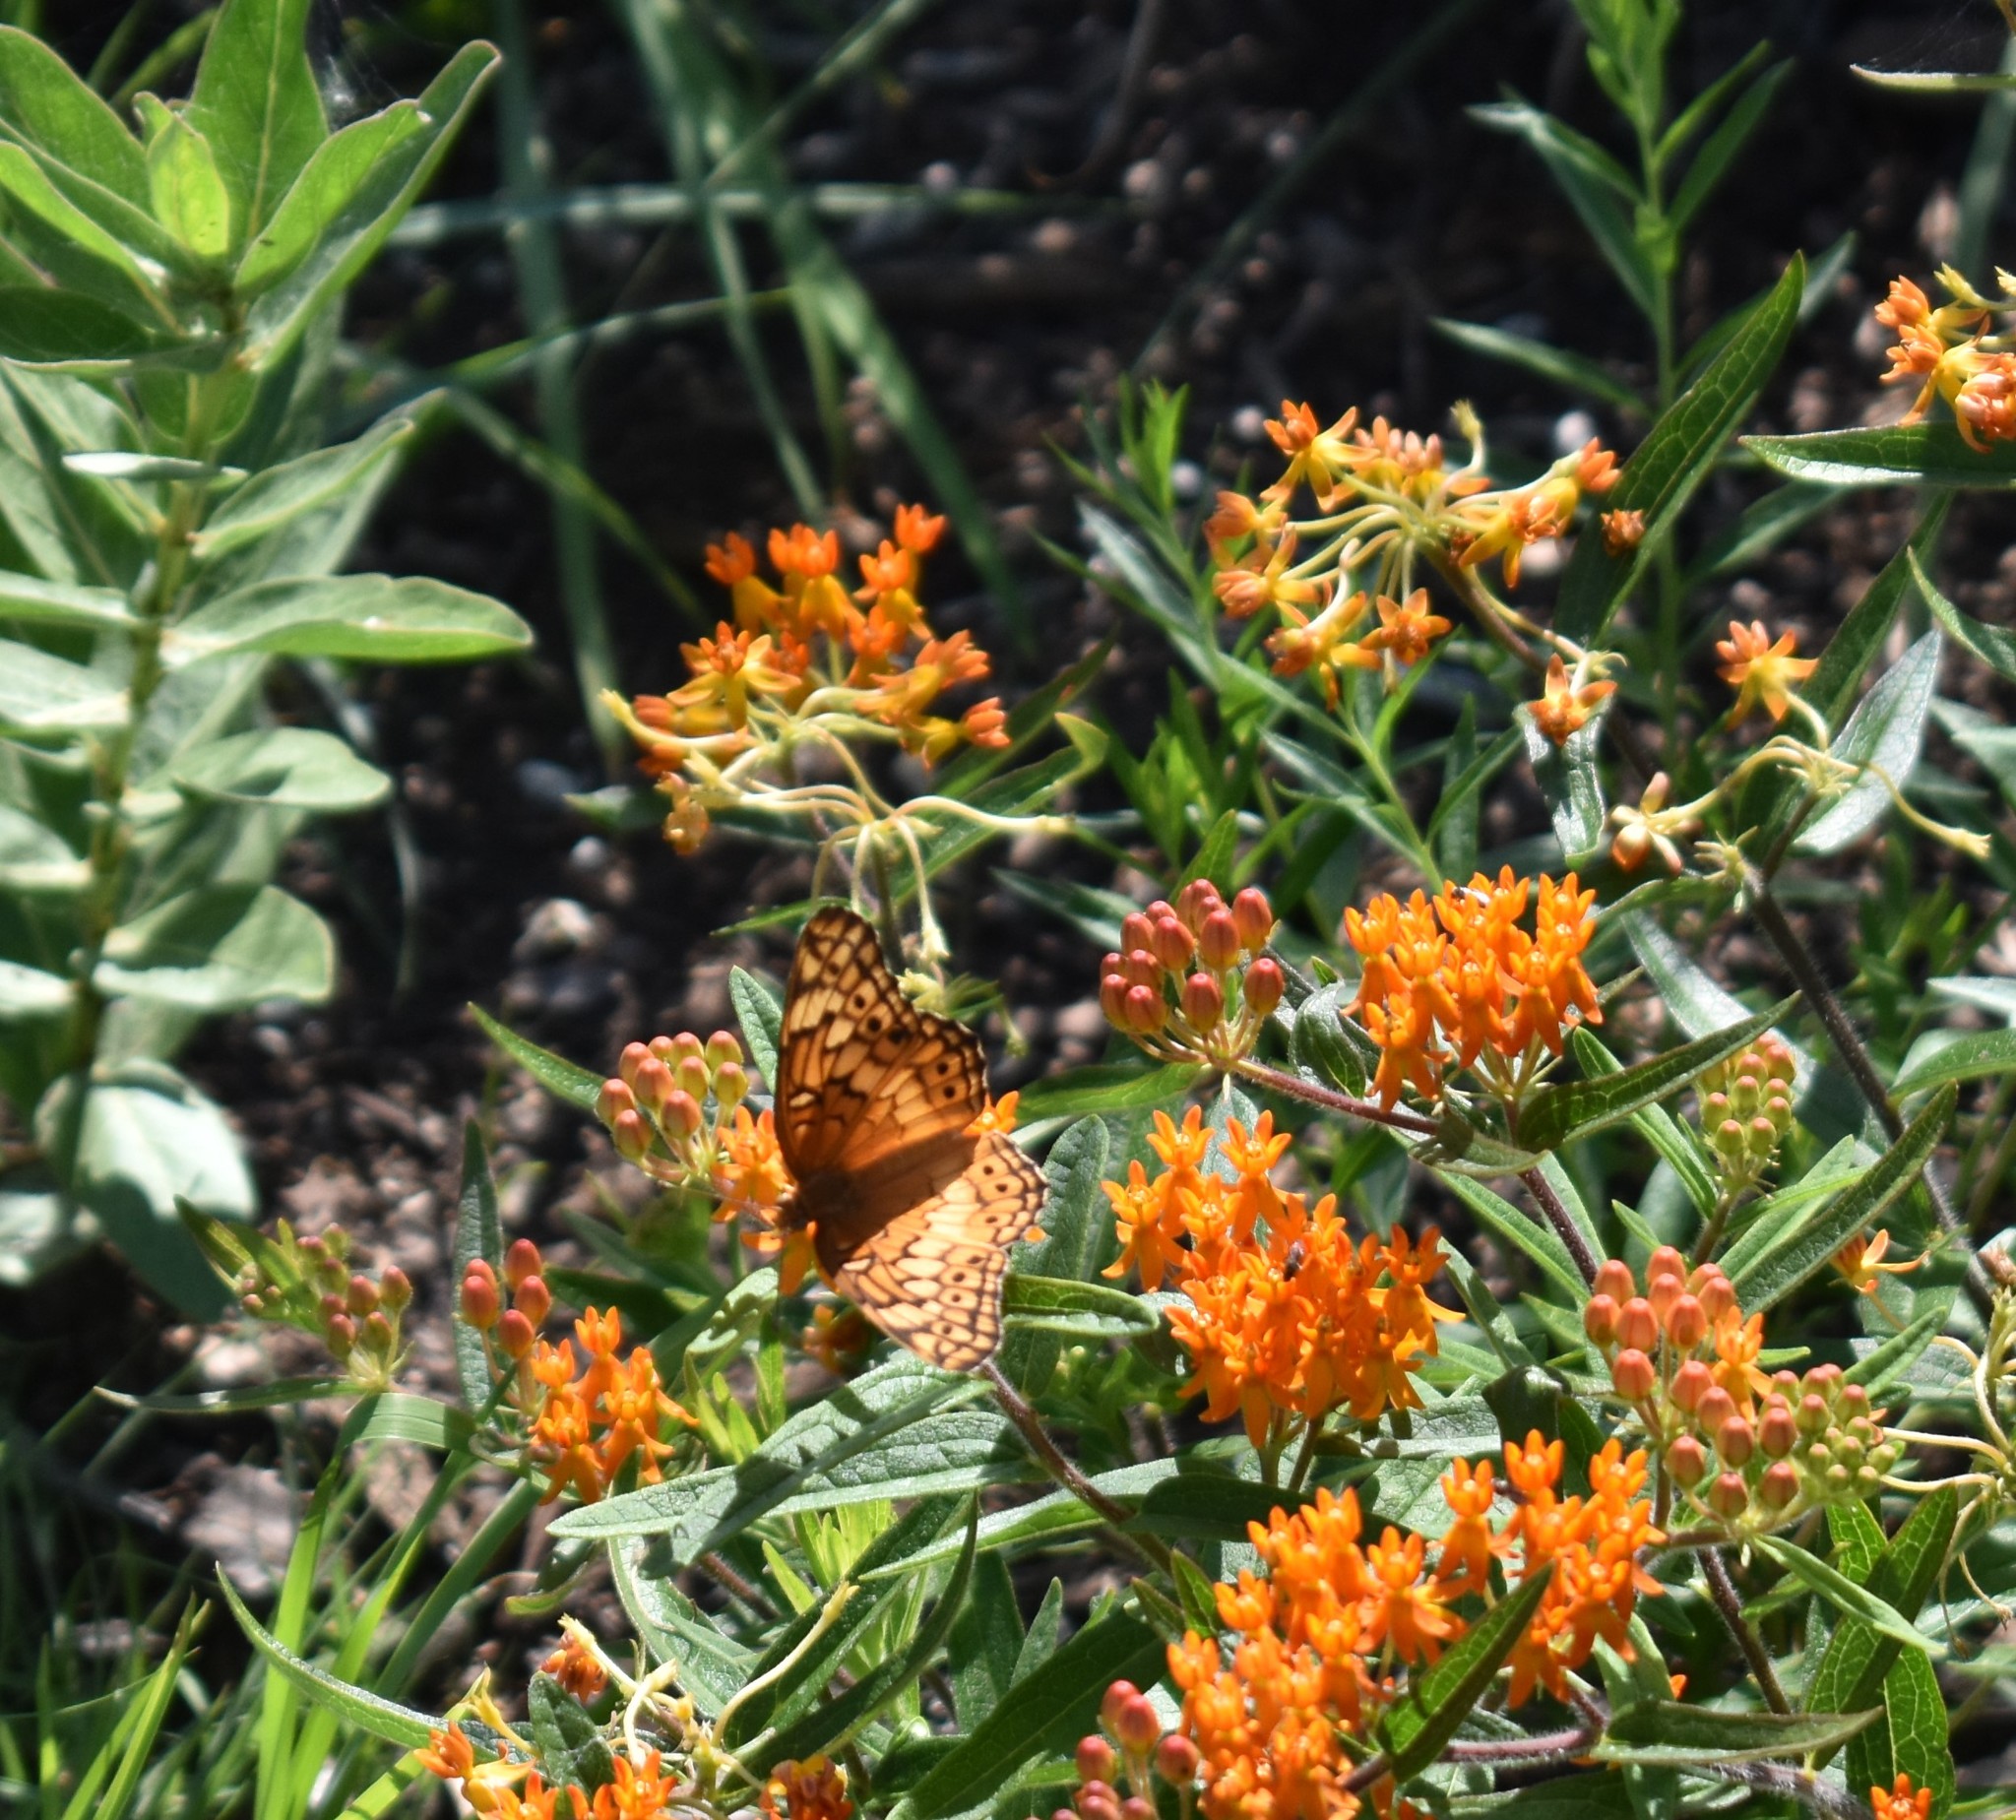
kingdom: Animalia
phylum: Arthropoda
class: Insecta
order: Lepidoptera
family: Nymphalidae
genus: Euptoieta
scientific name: Euptoieta claudia
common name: Variegated fritillary
